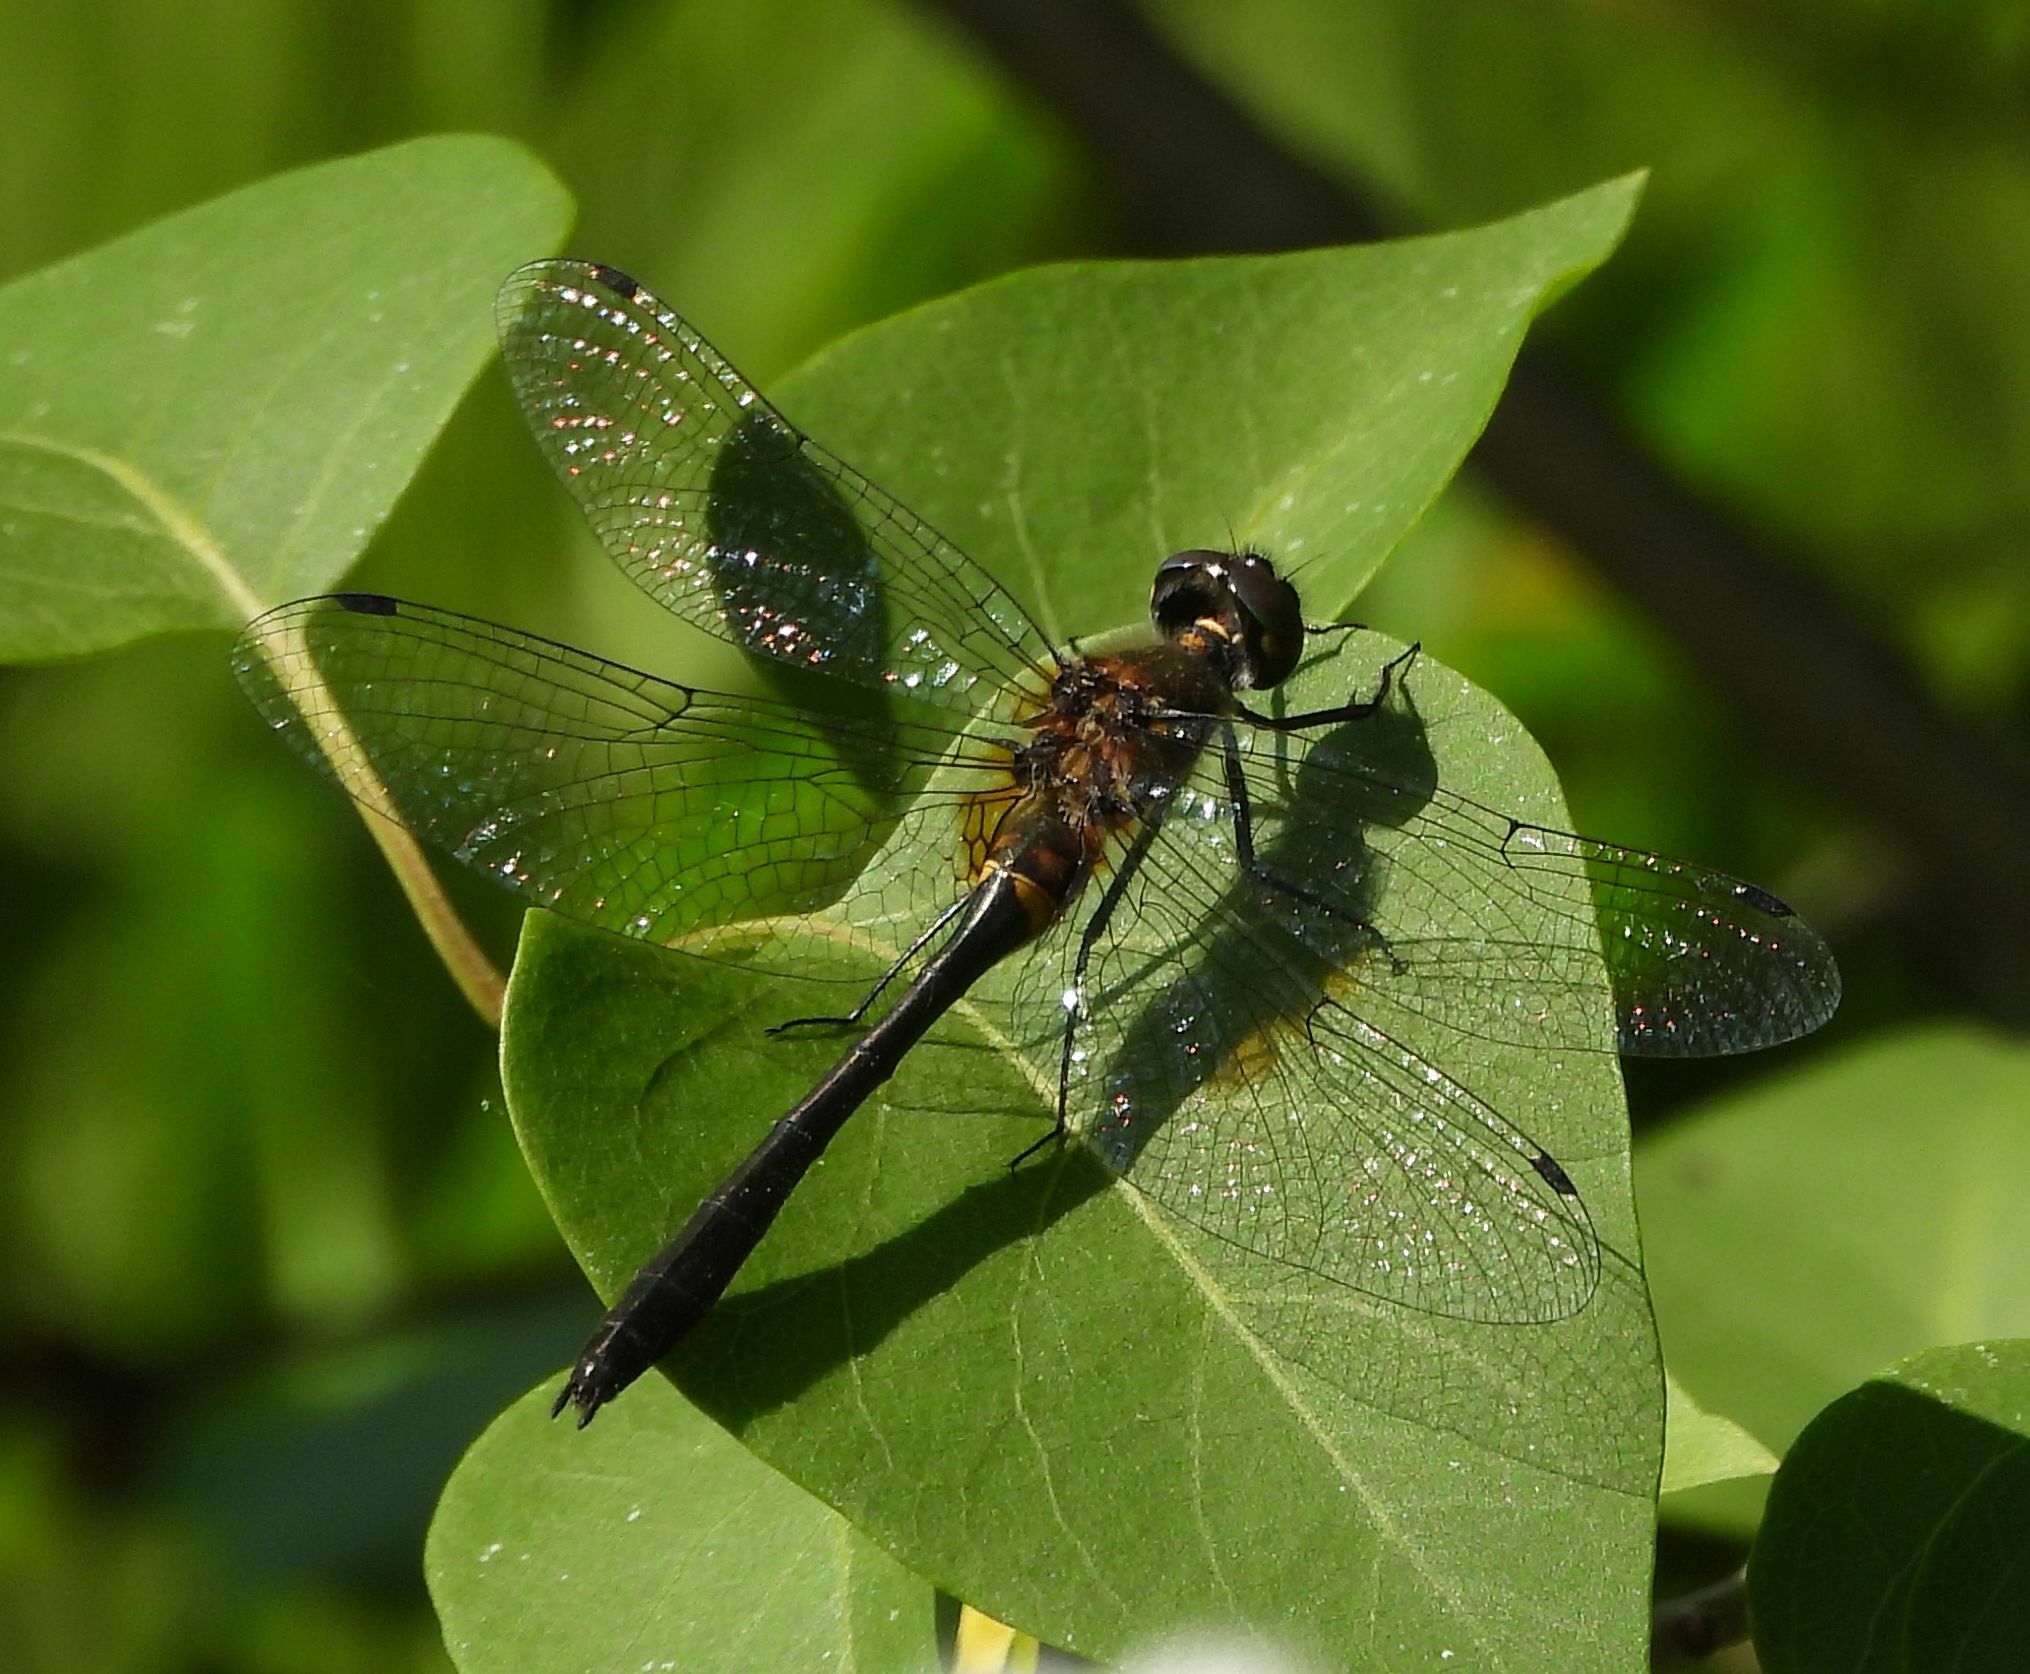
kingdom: Animalia
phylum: Arthropoda
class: Insecta
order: Odonata
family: Corduliidae
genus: Dorocordulia
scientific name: Dorocordulia libera
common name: Racket-tailed emerald
